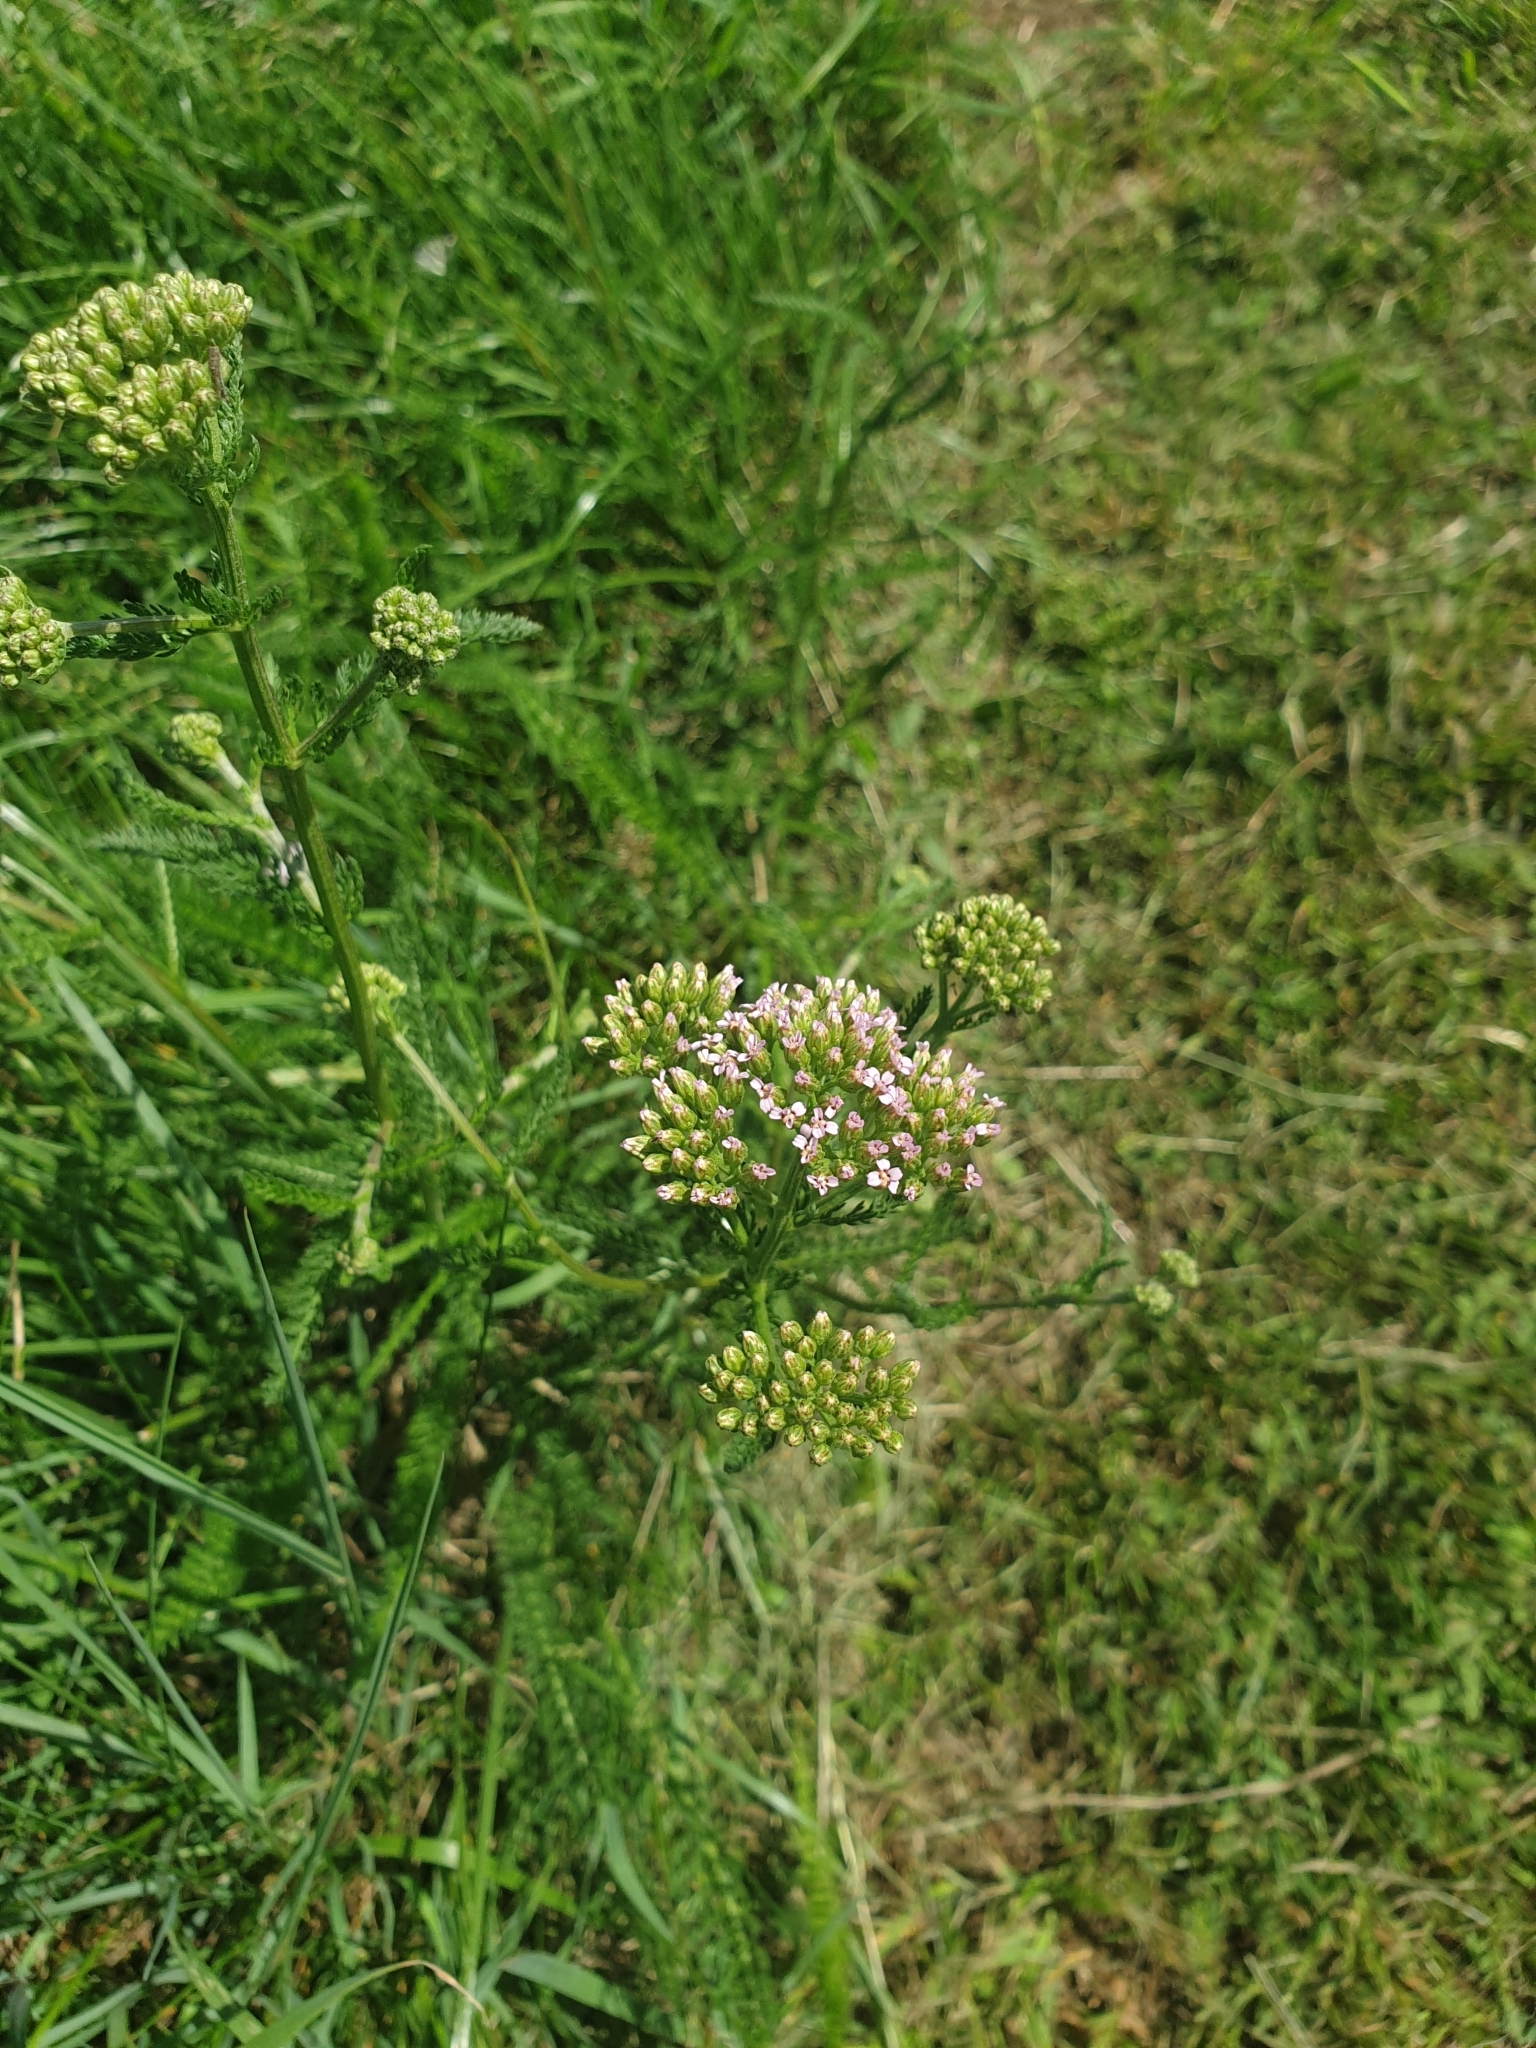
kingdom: Plantae
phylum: Tracheophyta
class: Magnoliopsida
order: Asterales
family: Asteraceae
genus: Achillea
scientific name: Achillea millefolium
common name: Yarrow
